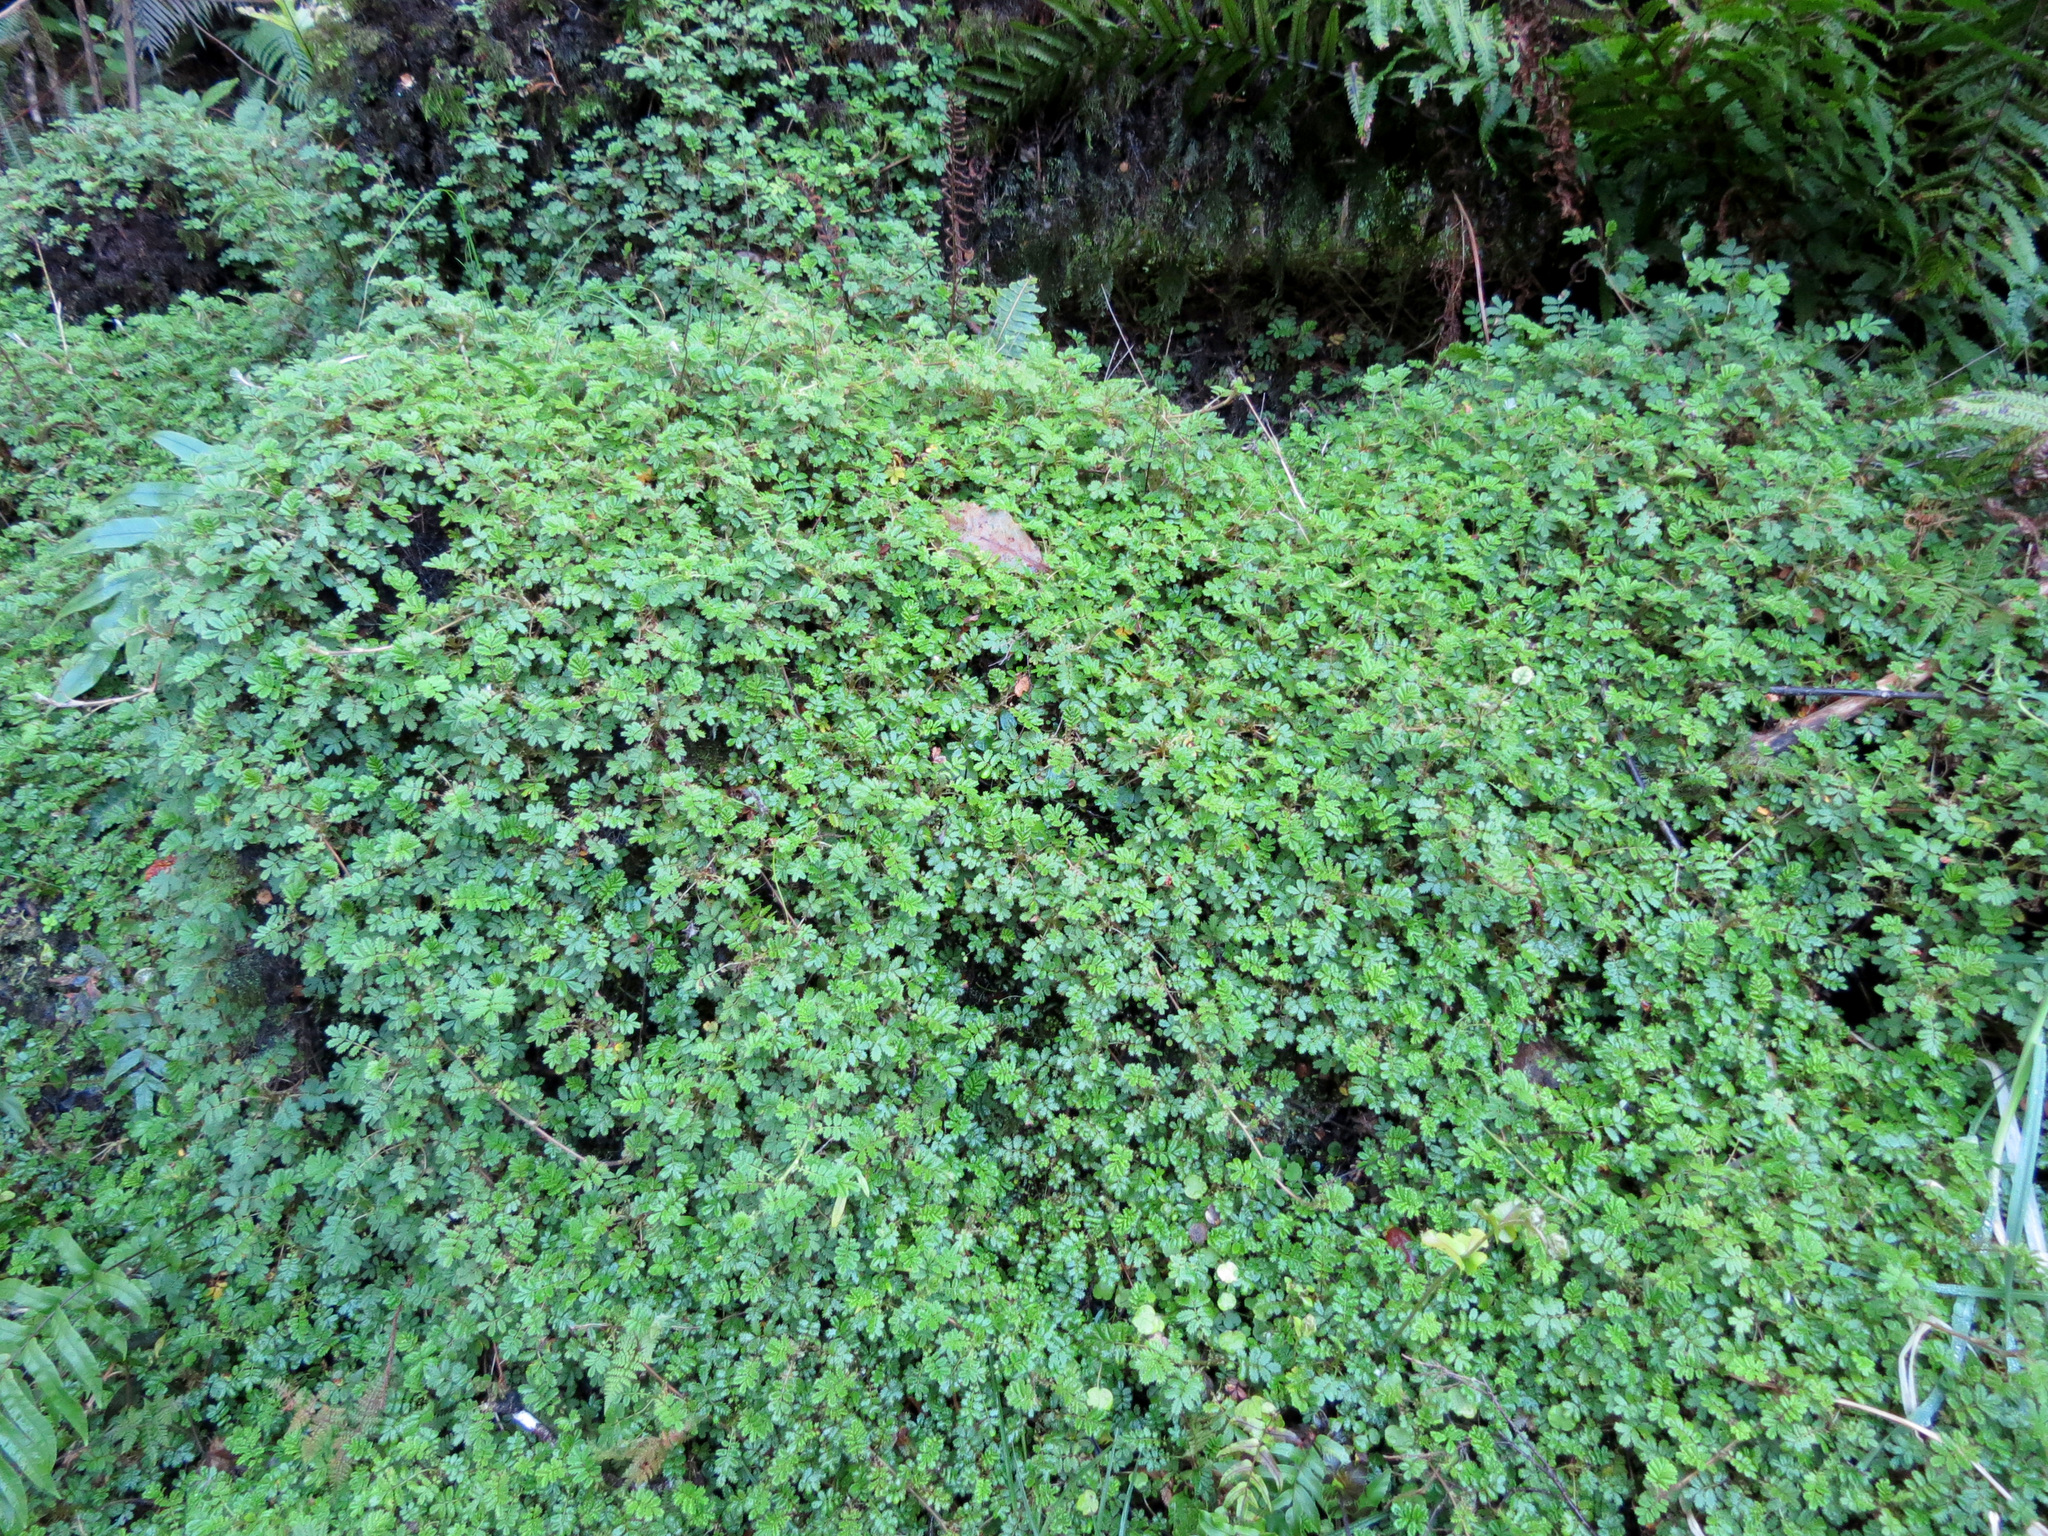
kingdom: Plantae
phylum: Tracheophyta
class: Magnoliopsida
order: Rosales
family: Rosaceae
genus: Acaena
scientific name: Acaena anserinifolia
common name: Bronze pirri-pirri-bur
